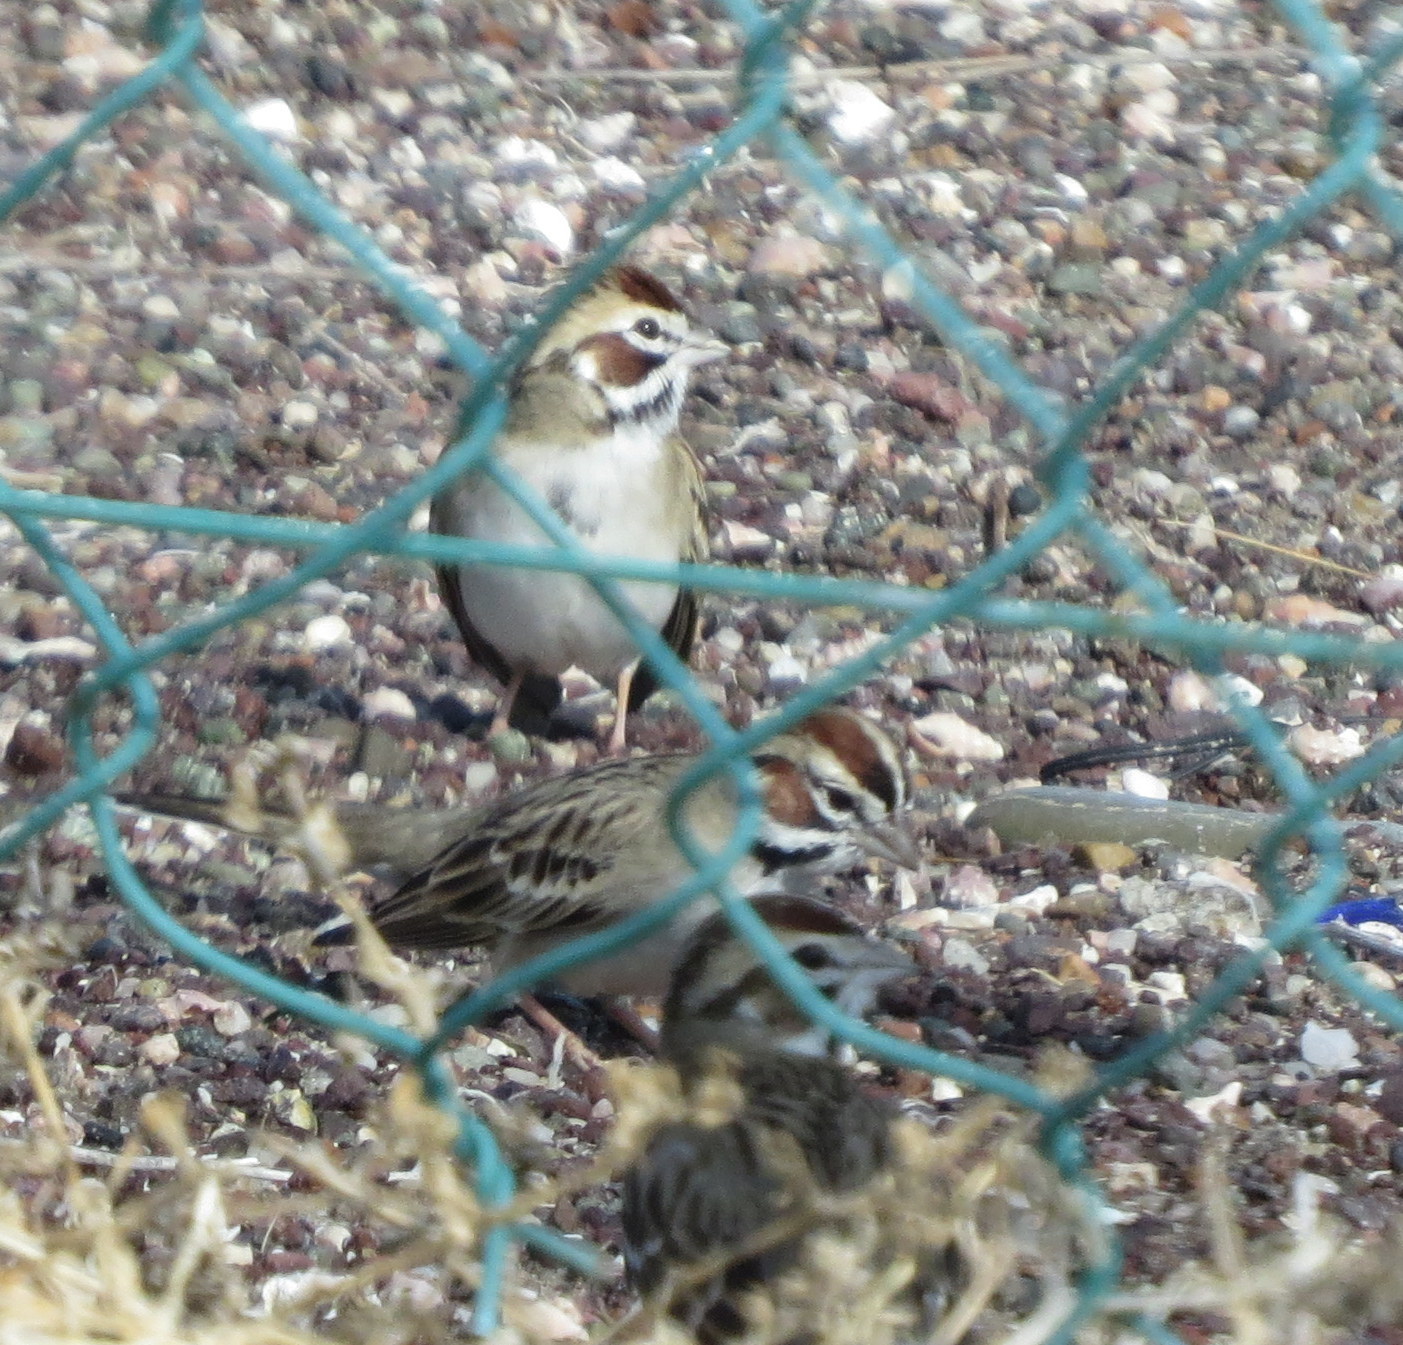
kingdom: Animalia
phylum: Chordata
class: Aves
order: Passeriformes
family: Passerellidae
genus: Chondestes
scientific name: Chondestes grammacus
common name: Lark sparrow
